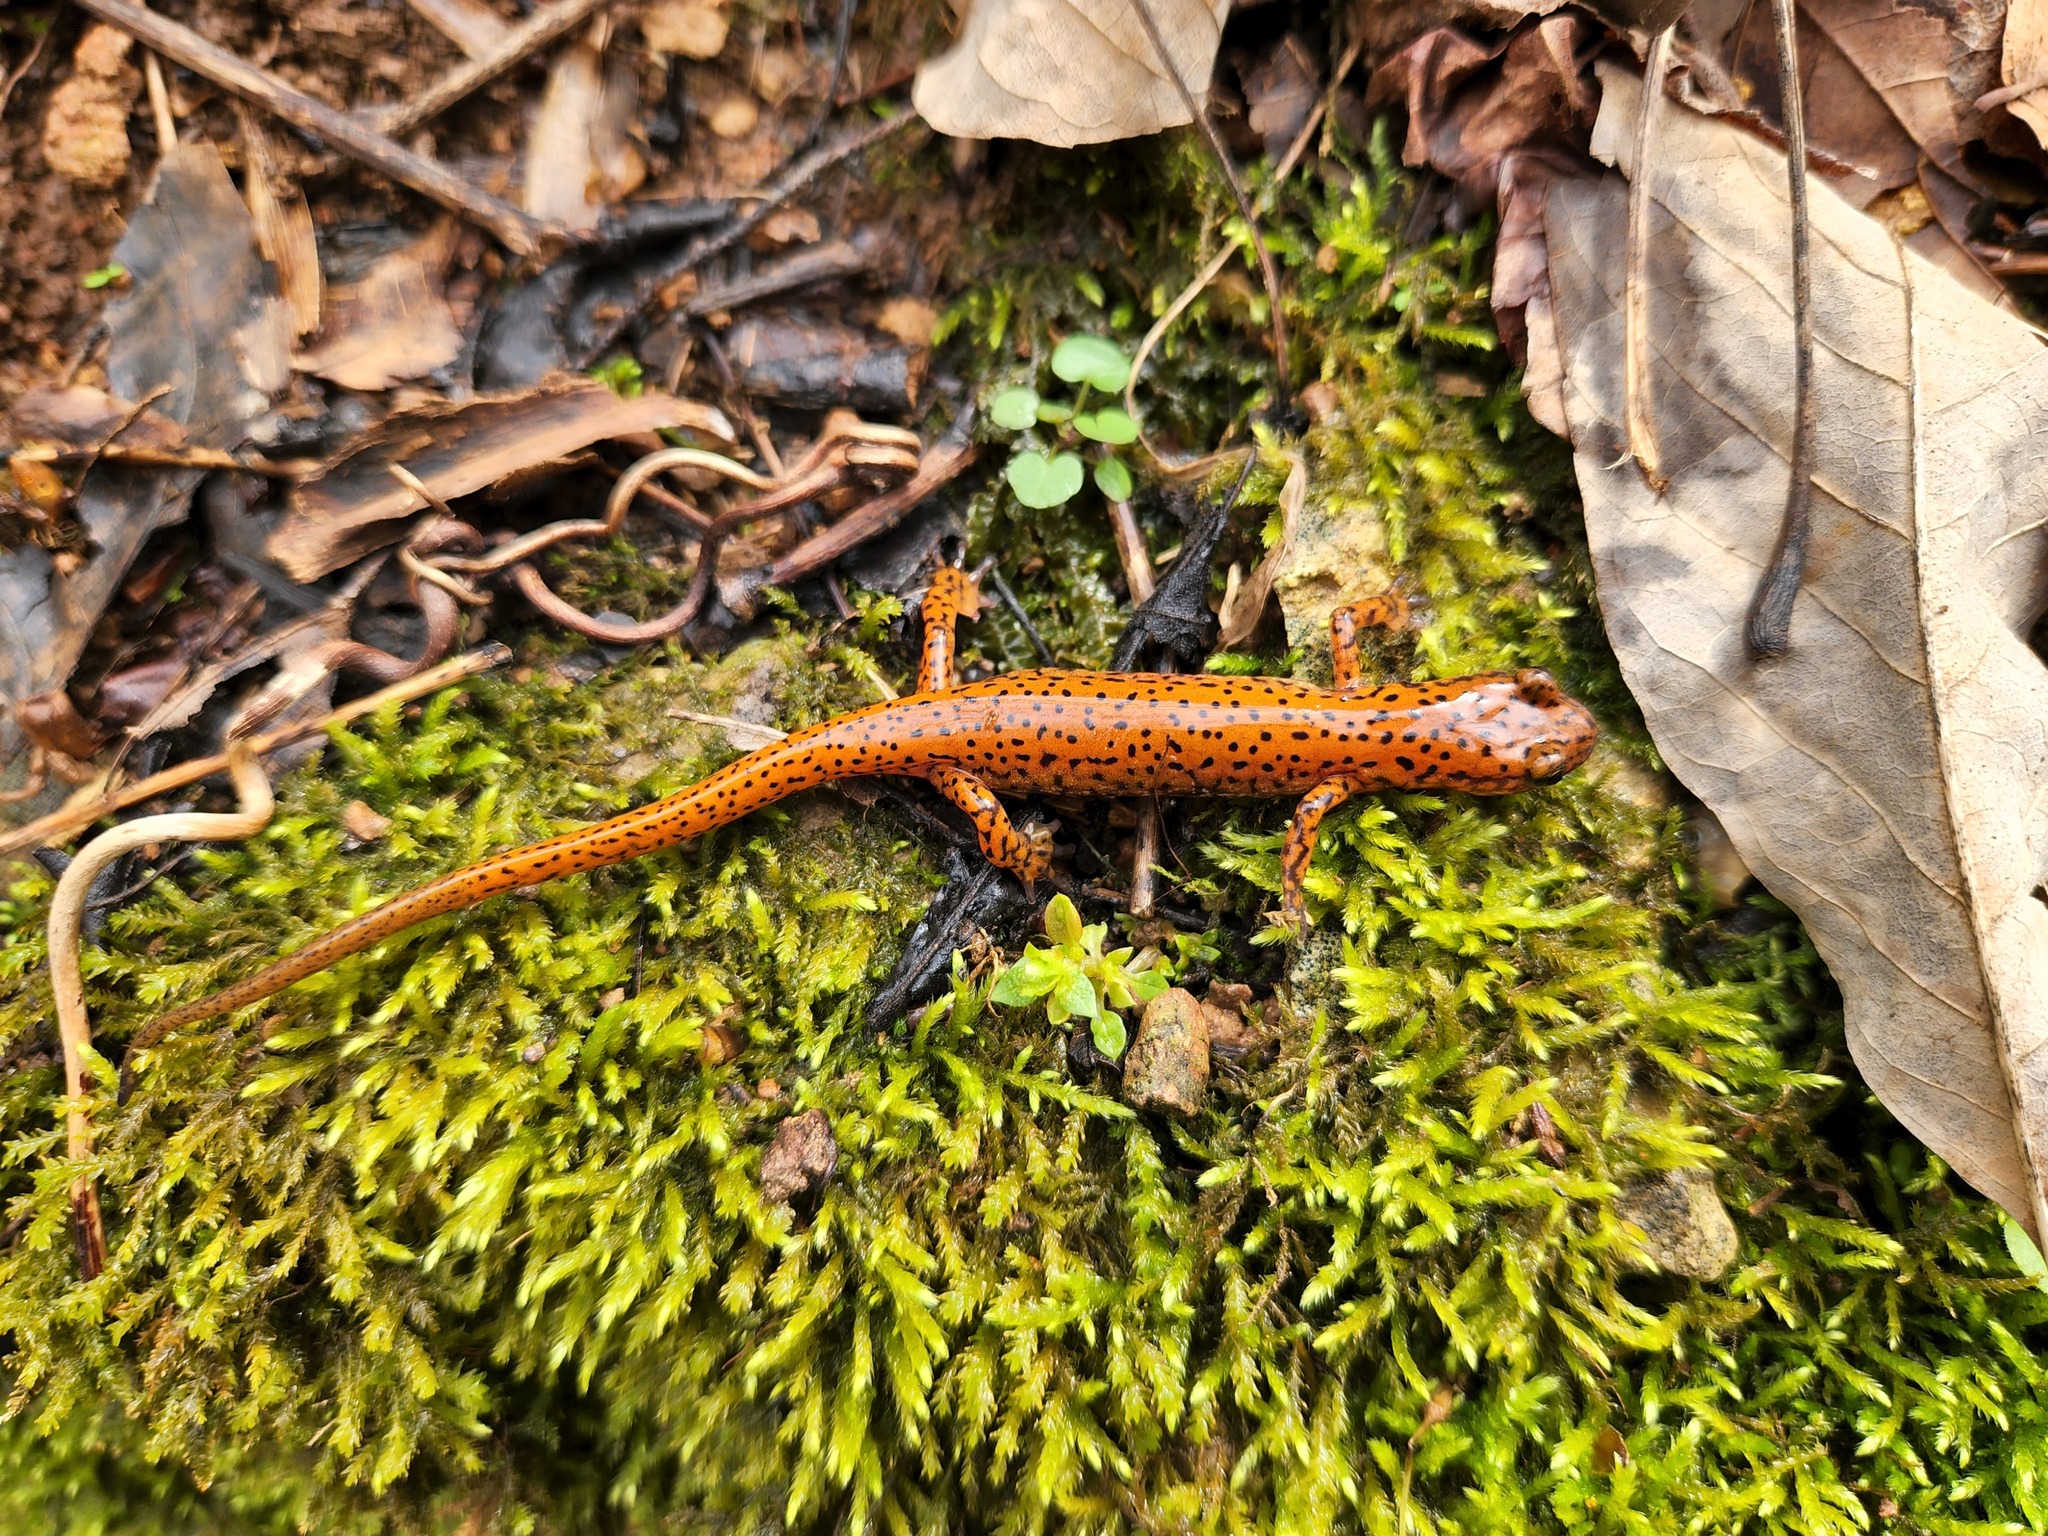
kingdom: Animalia
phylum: Chordata
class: Amphibia
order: Caudata
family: Plethodontidae
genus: Eurycea
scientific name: Eurycea lucifuga
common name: Cave salamander
